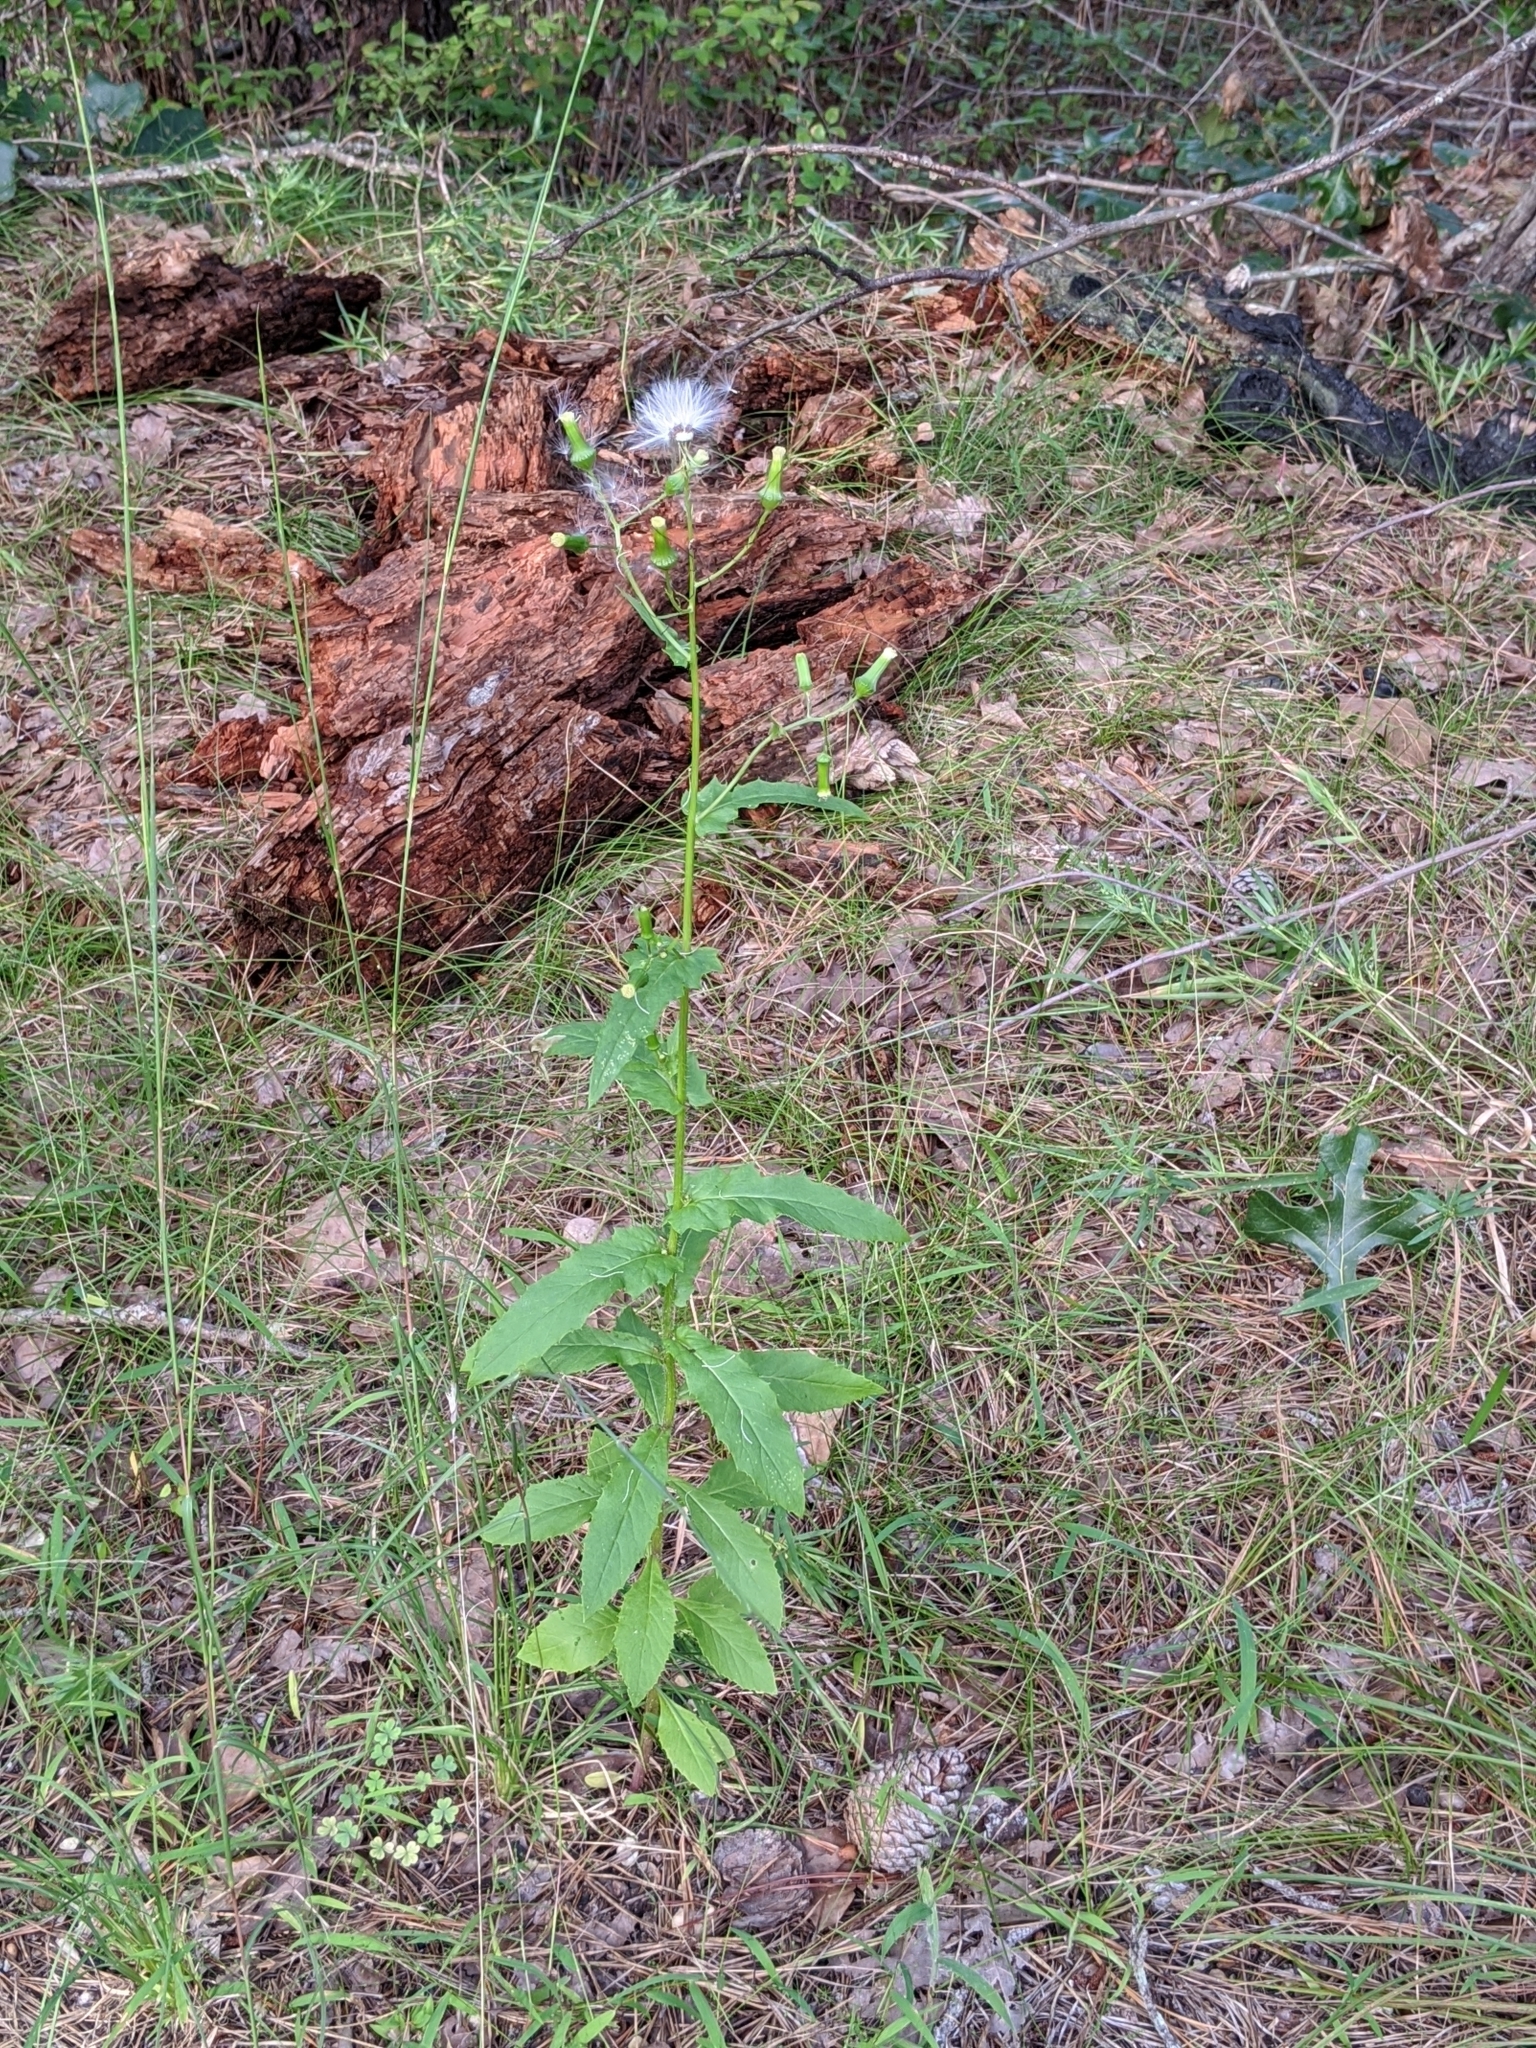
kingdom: Plantae
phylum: Tracheophyta
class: Magnoliopsida
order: Asterales
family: Asteraceae
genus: Erechtites
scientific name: Erechtites hieraciifolius
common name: American burnweed
